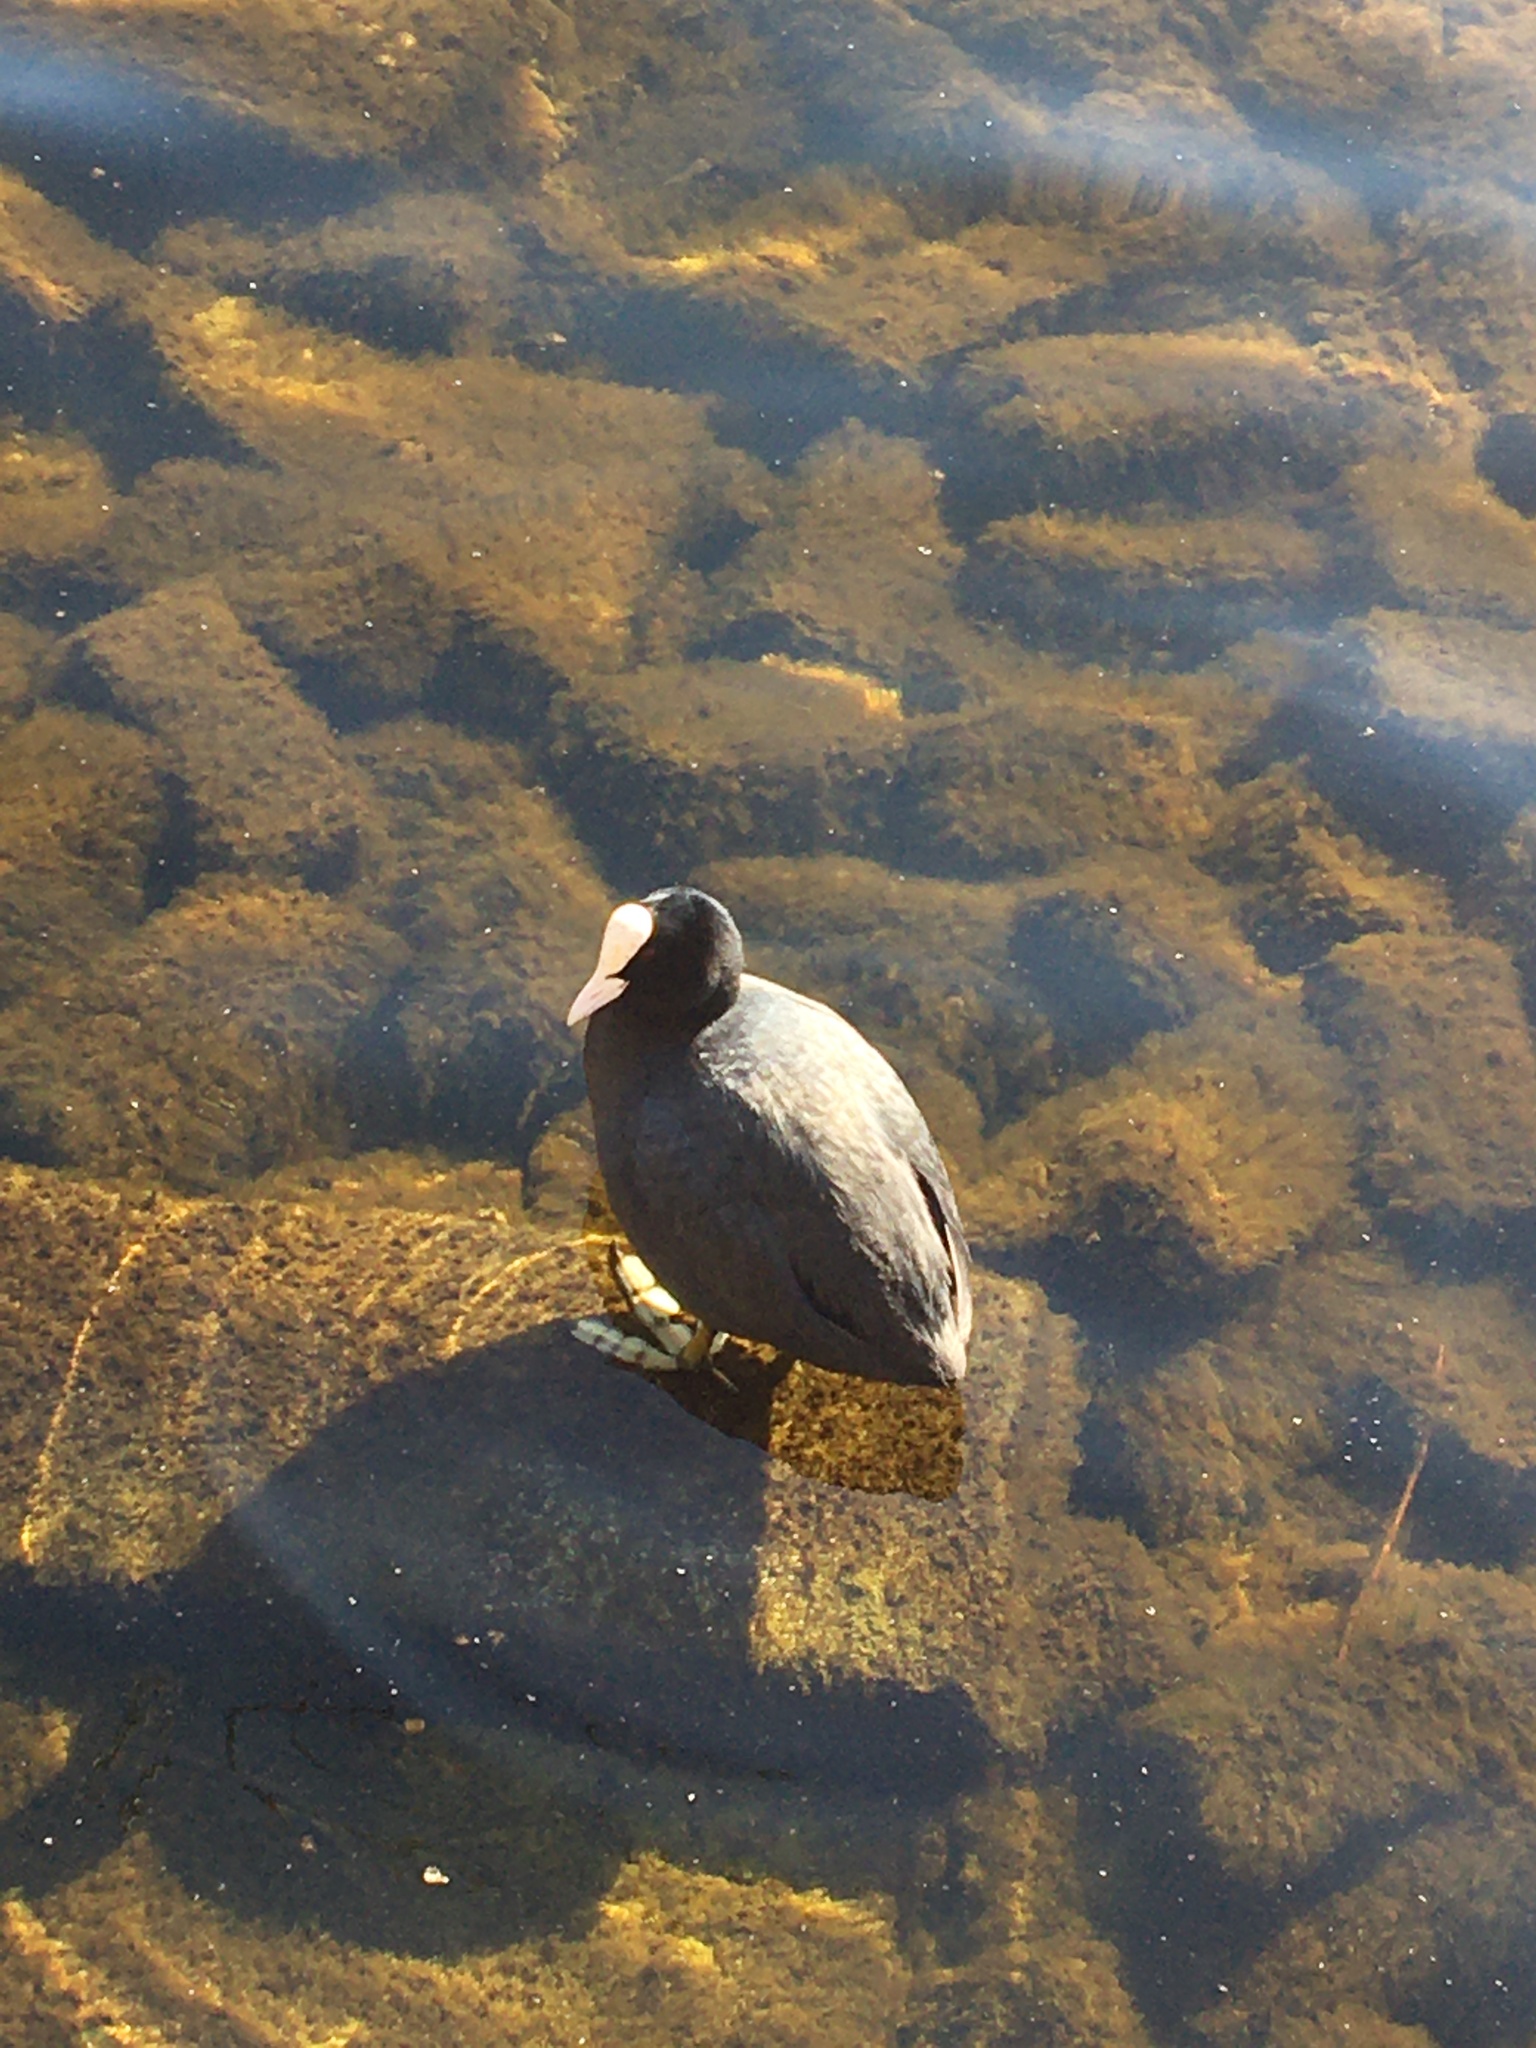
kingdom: Animalia
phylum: Chordata
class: Aves
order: Gruiformes
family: Rallidae
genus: Fulica
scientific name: Fulica atra
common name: Eurasian coot
